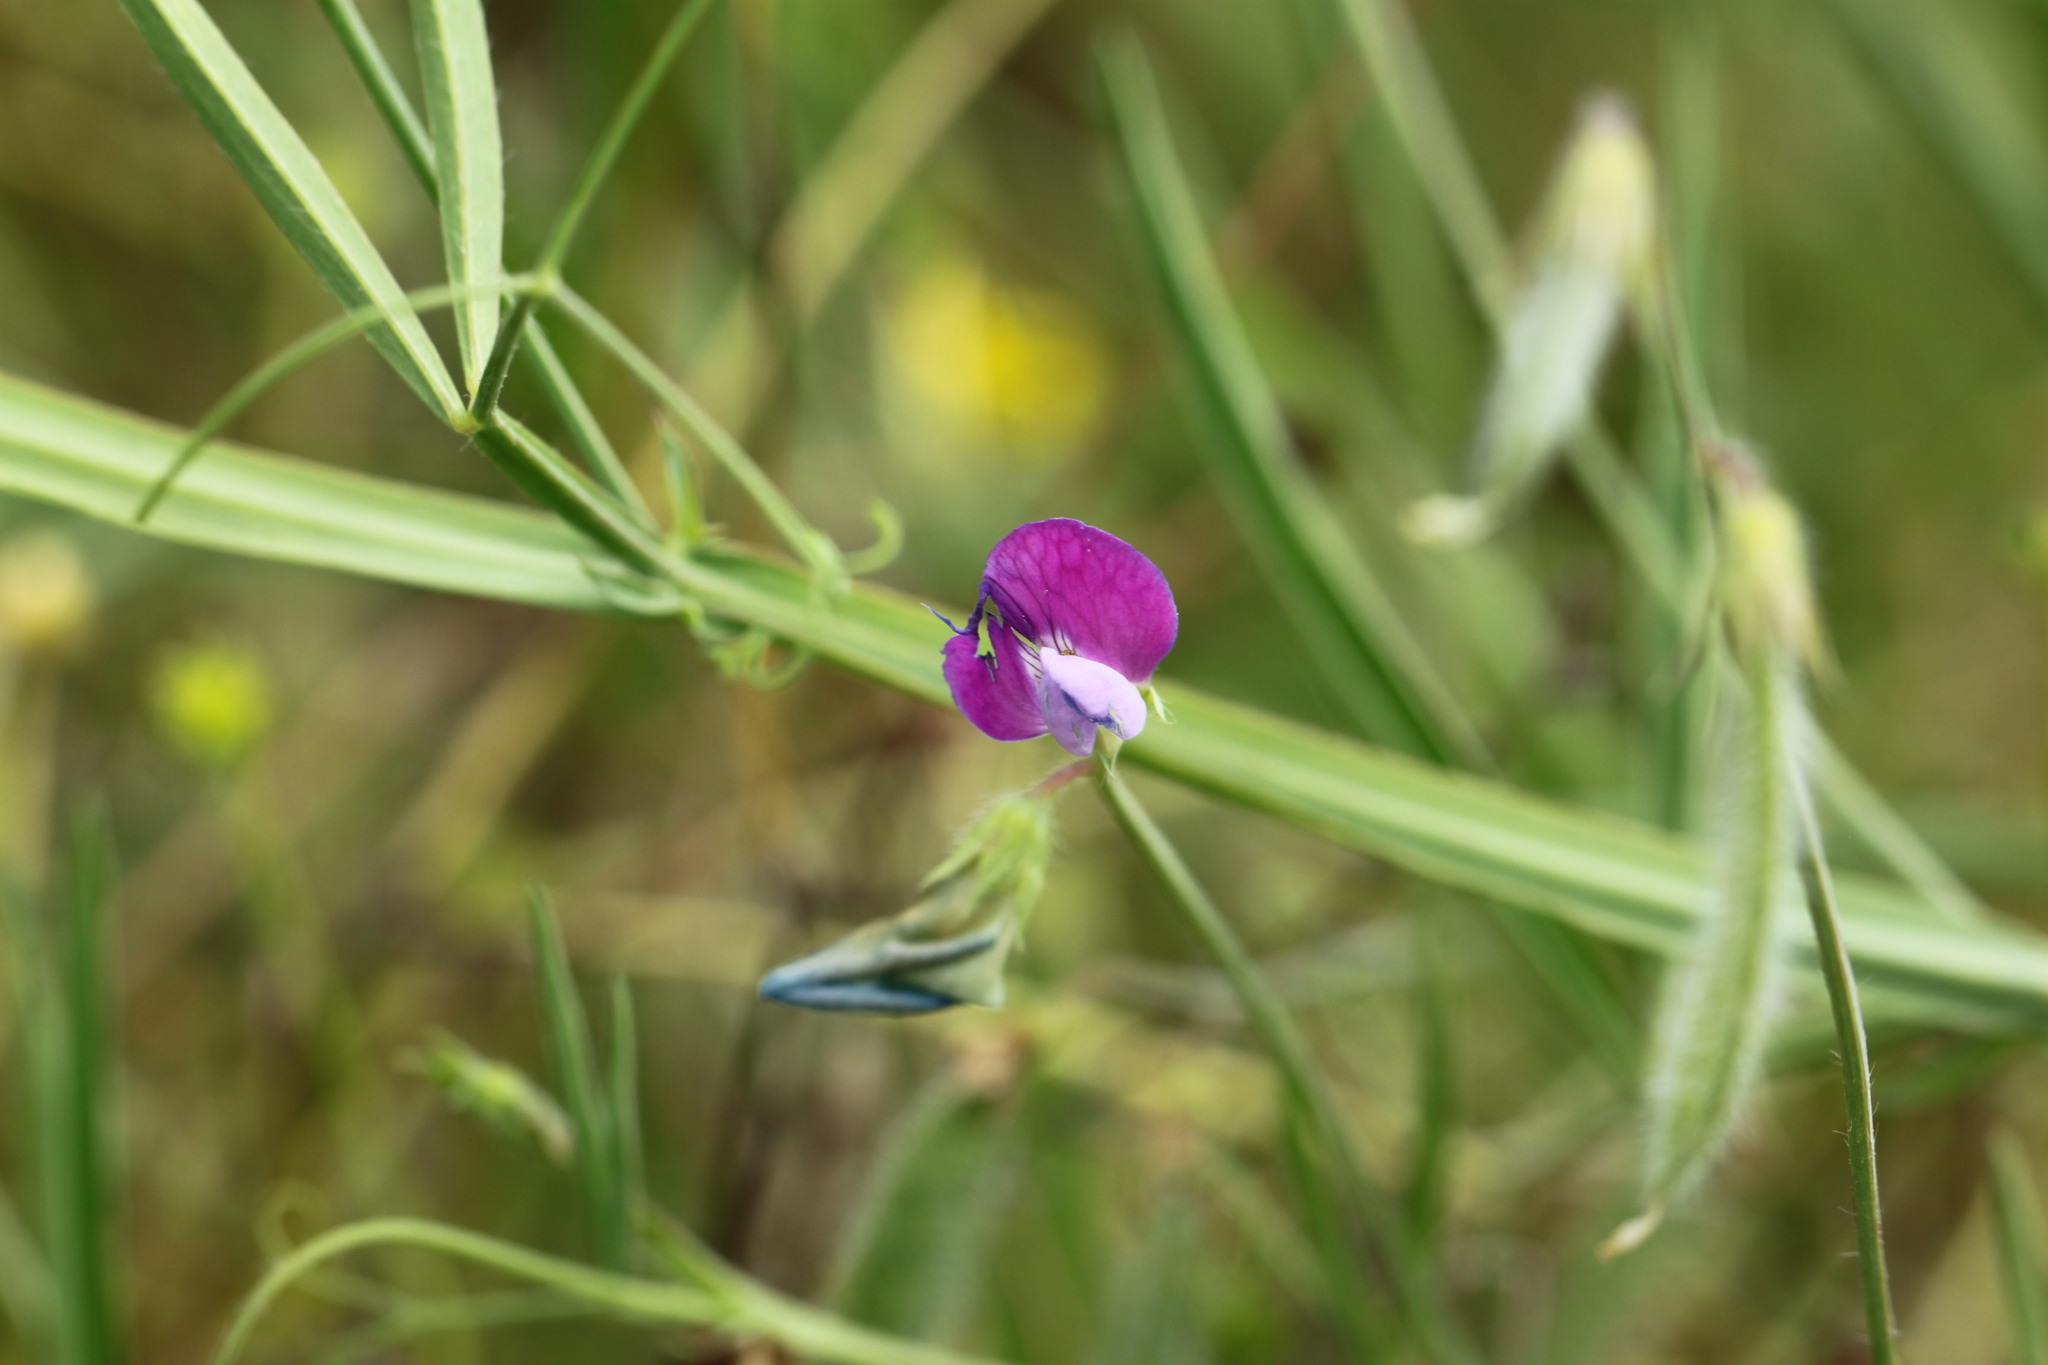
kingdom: Plantae
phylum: Tracheophyta
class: Magnoliopsida
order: Fabales
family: Fabaceae
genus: Lathyrus
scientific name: Lathyrus hirsutus
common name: Hairy vetchling
